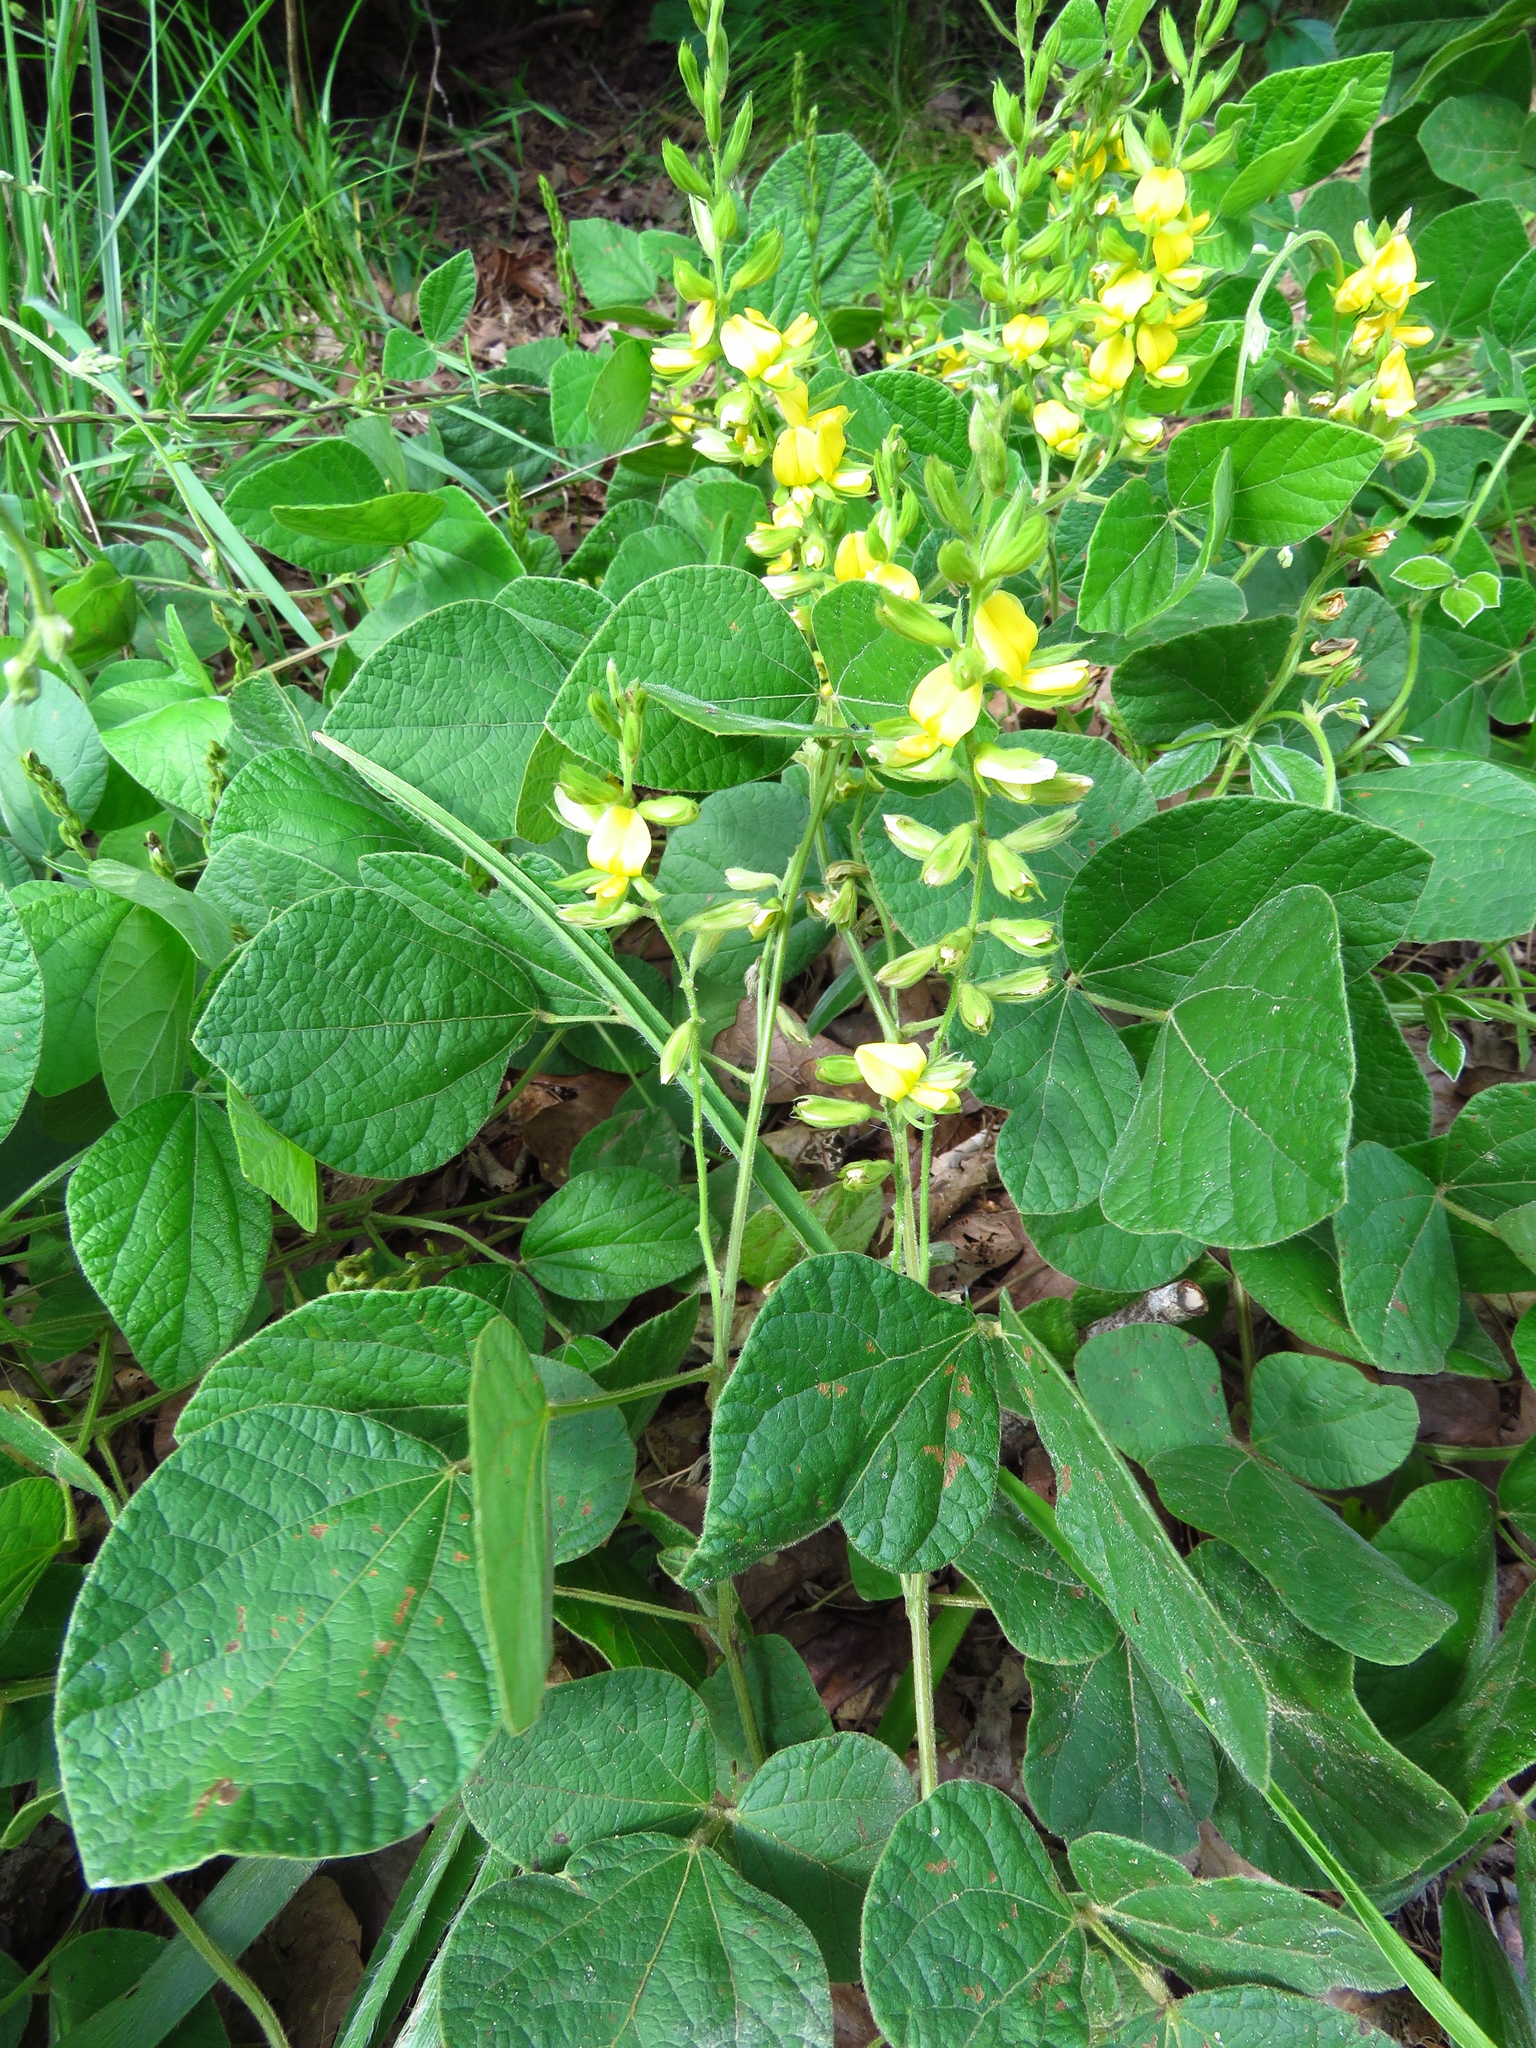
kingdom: Plantae
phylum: Tracheophyta
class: Magnoliopsida
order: Fabales
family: Fabaceae
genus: Rhynchosia
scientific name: Rhynchosia latifolia
